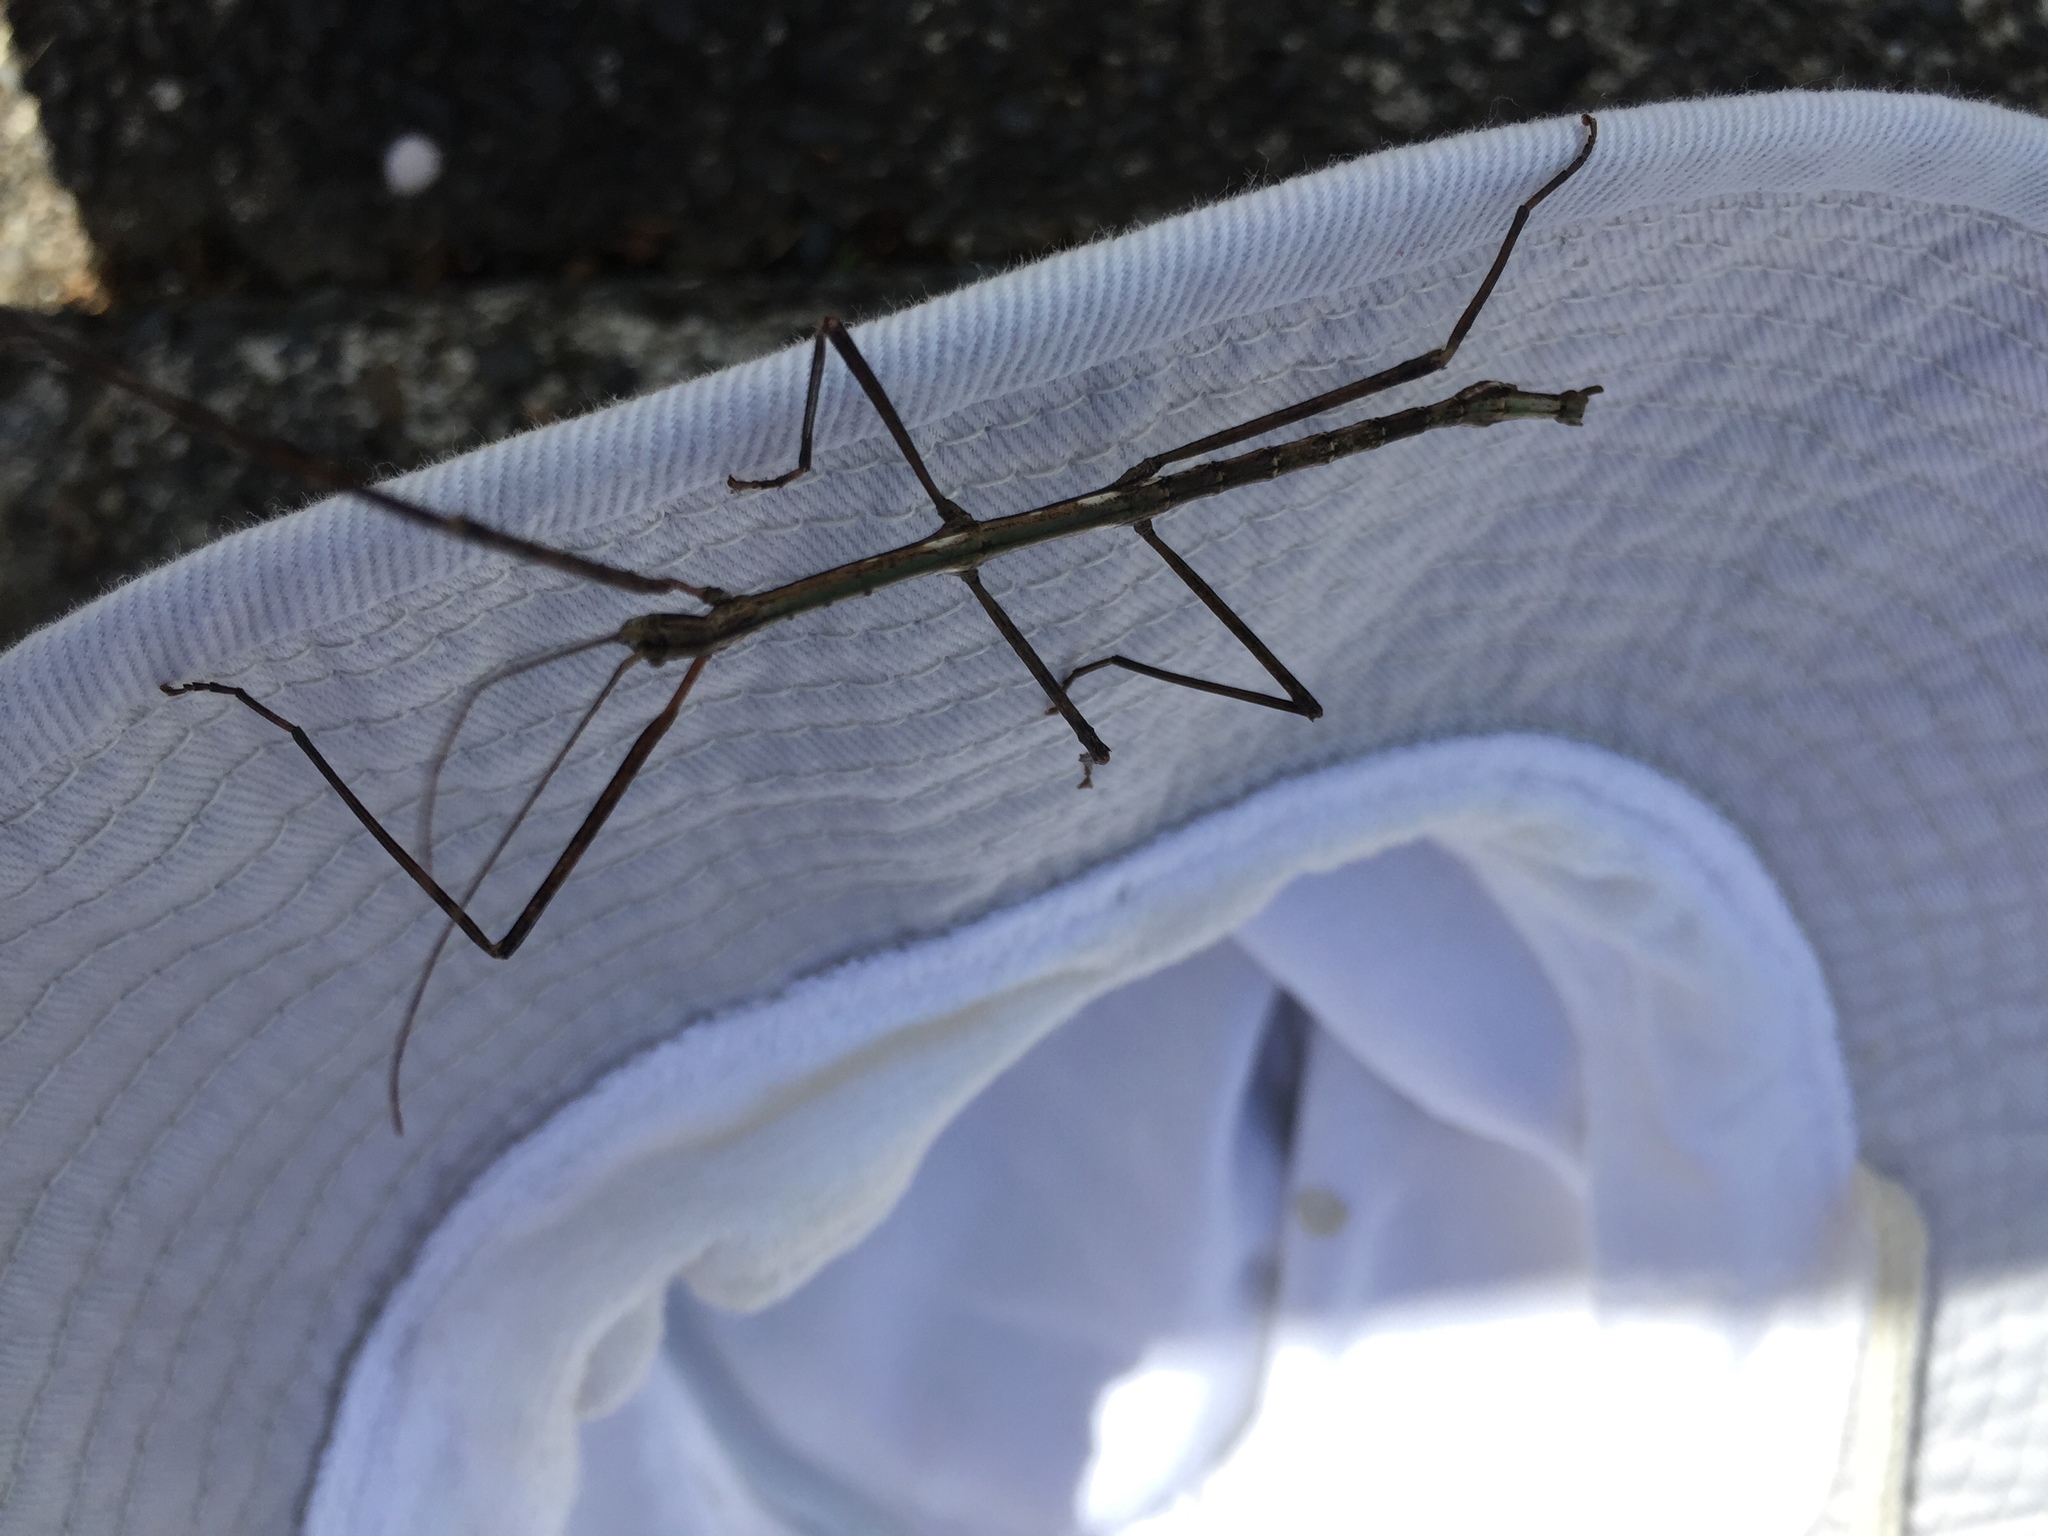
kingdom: Animalia
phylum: Arthropoda
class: Insecta
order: Phasmida
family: Phasmatidae
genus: Clitarchus
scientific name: Clitarchus hookeri
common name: Smooth stick insect
